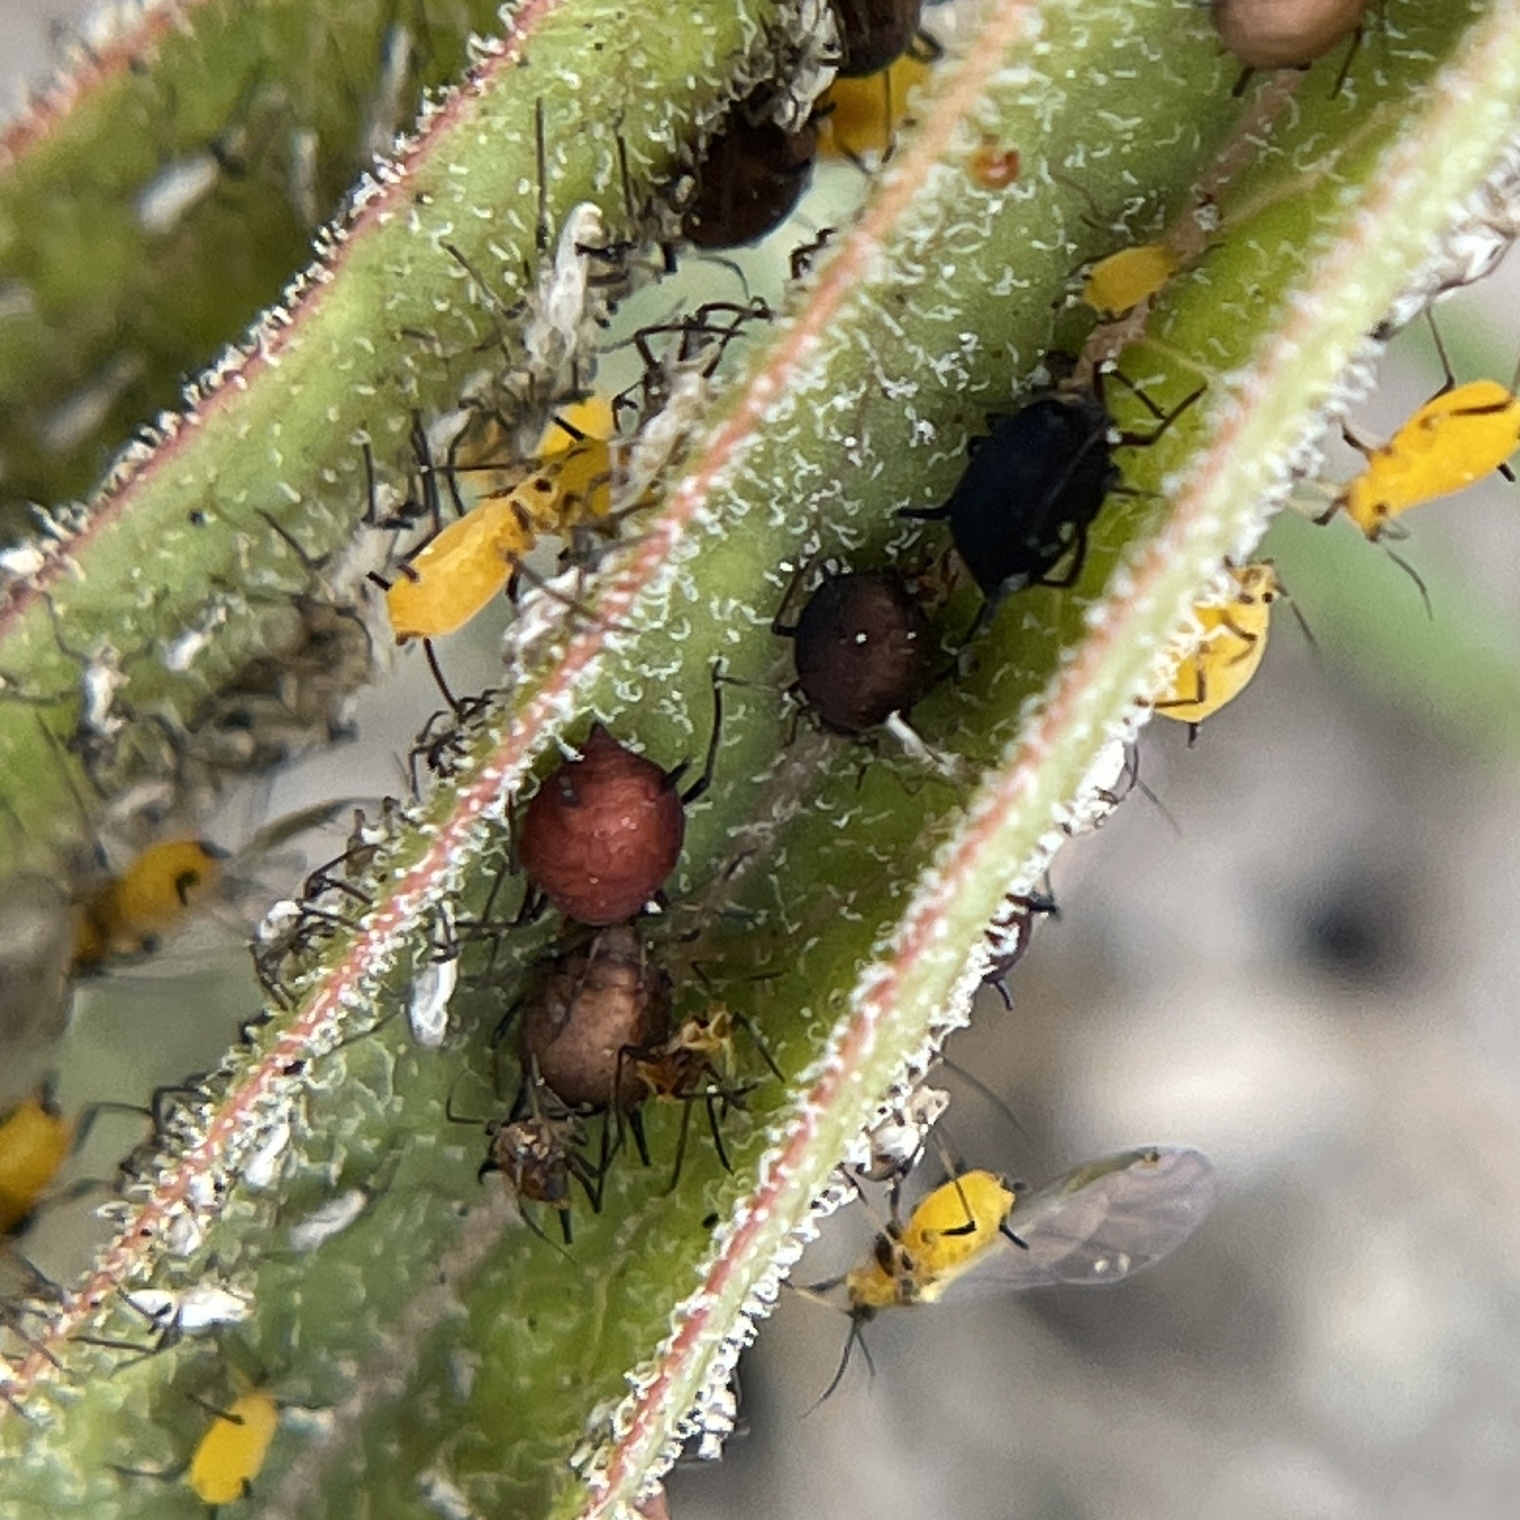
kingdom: Animalia
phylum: Arthropoda
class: Insecta
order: Hemiptera
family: Aphididae
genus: Aphis
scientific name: Aphis nerii
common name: Oleander aphid
